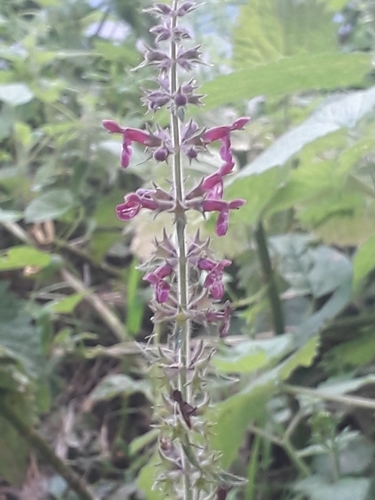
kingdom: Plantae
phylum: Tracheophyta
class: Magnoliopsida
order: Lamiales
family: Lamiaceae
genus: Stachys
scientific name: Stachys sylvatica
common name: Hedge woundwort
